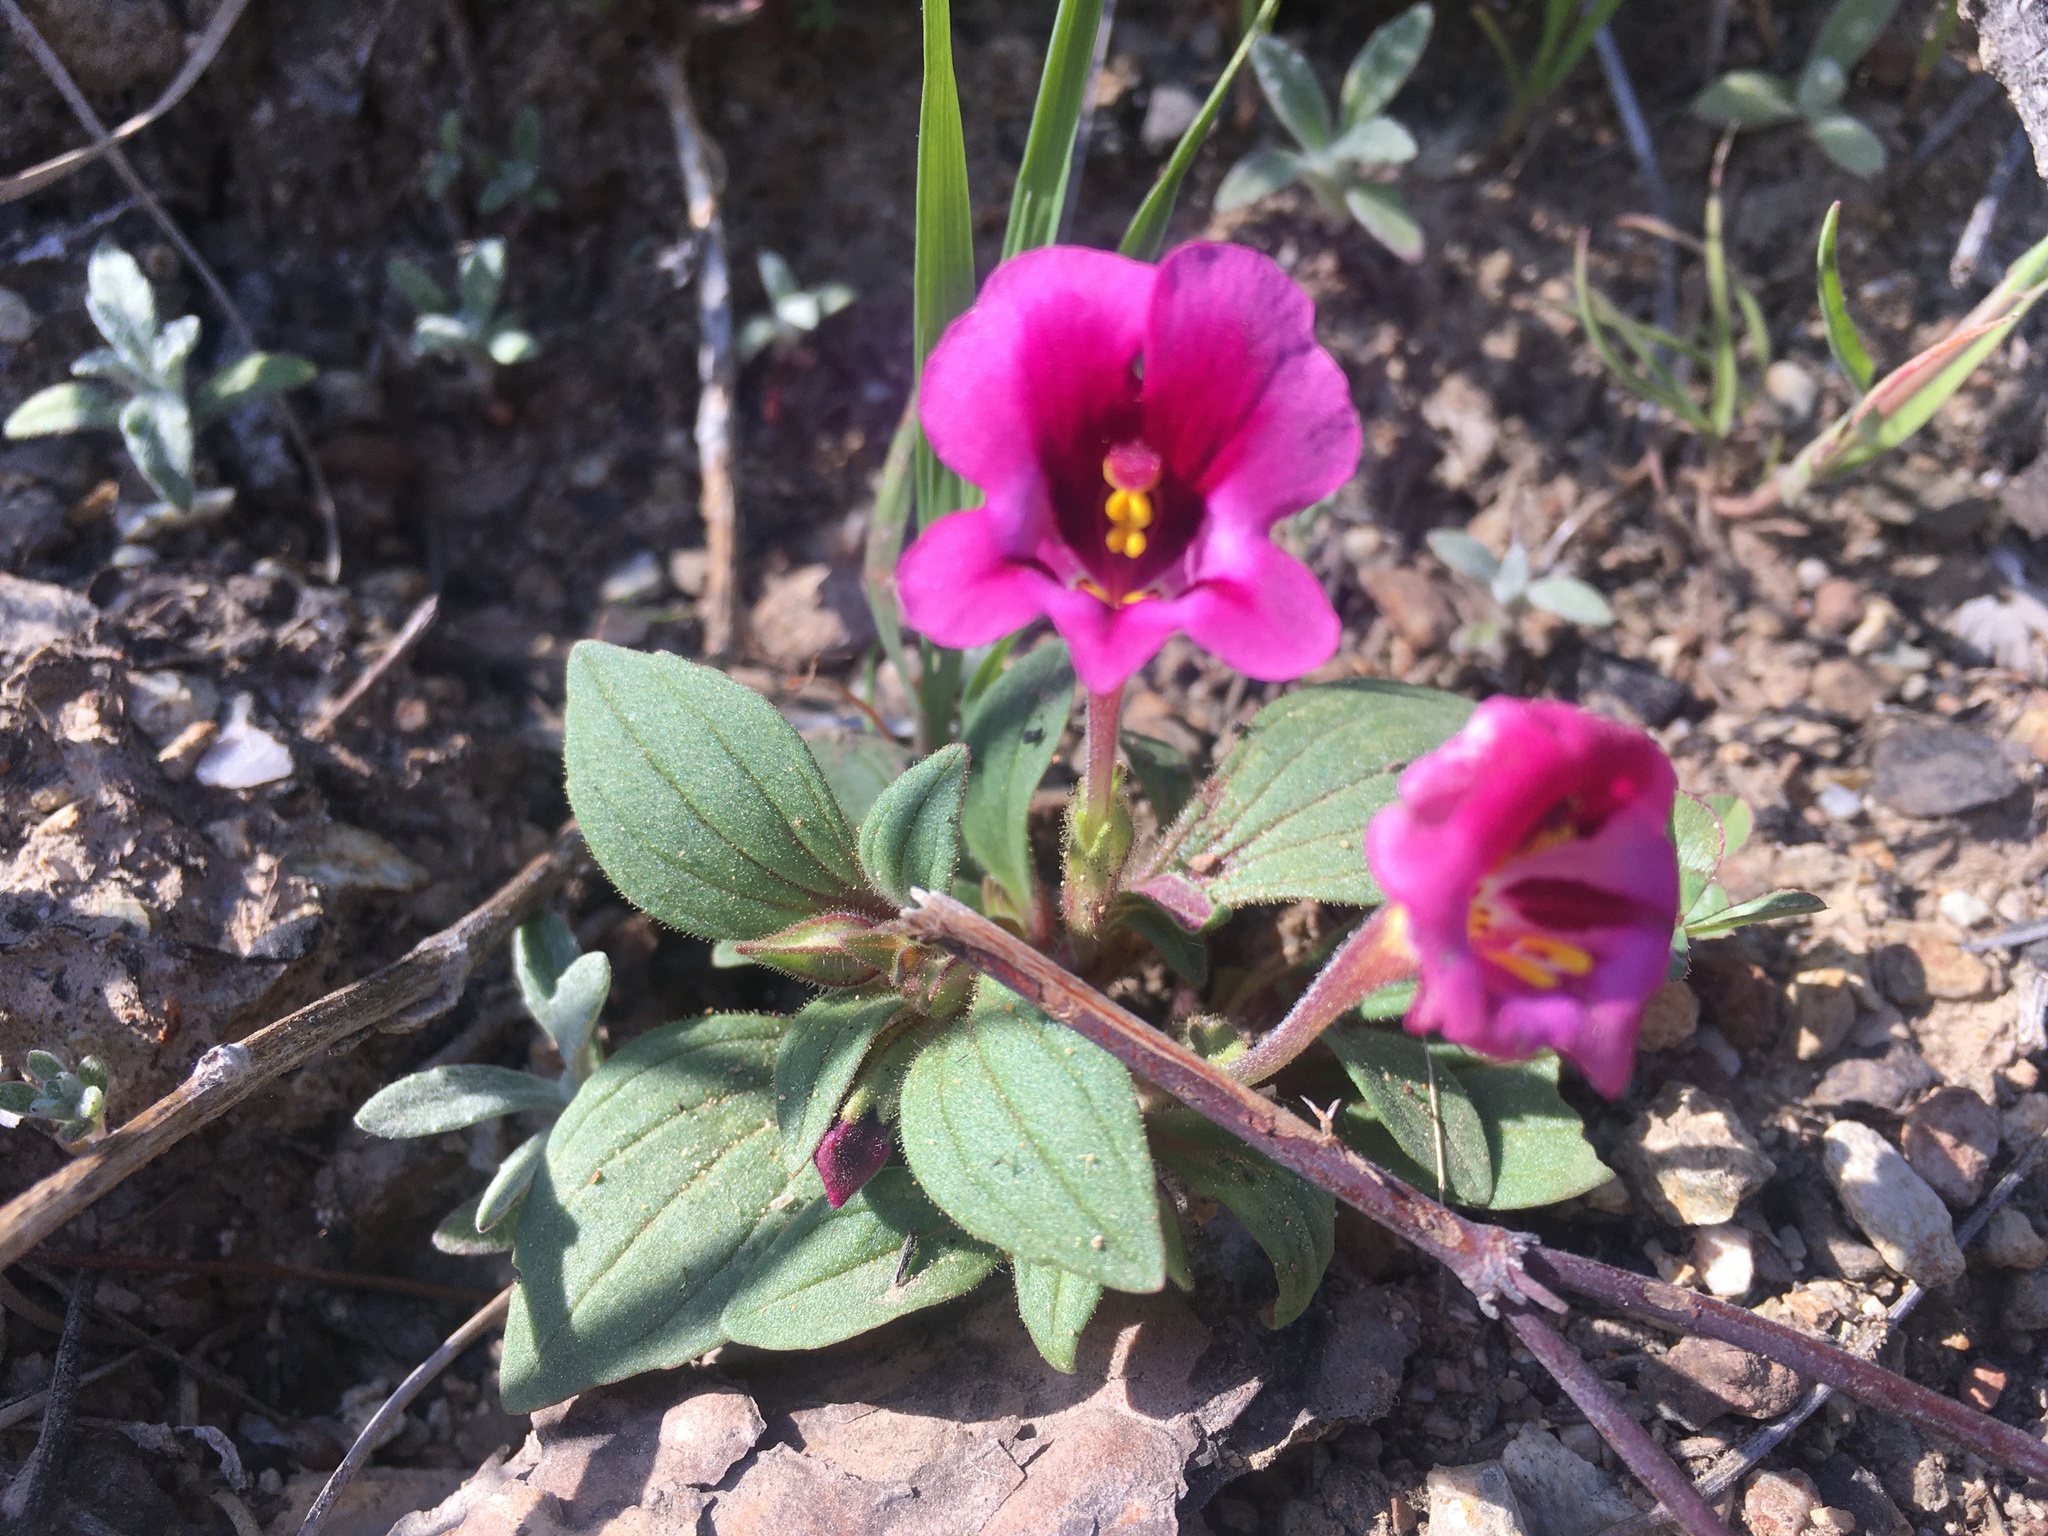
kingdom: Plantae
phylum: Tracheophyta
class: Magnoliopsida
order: Lamiales
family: Phrymaceae
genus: Diplacus
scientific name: Diplacus kelloggii
